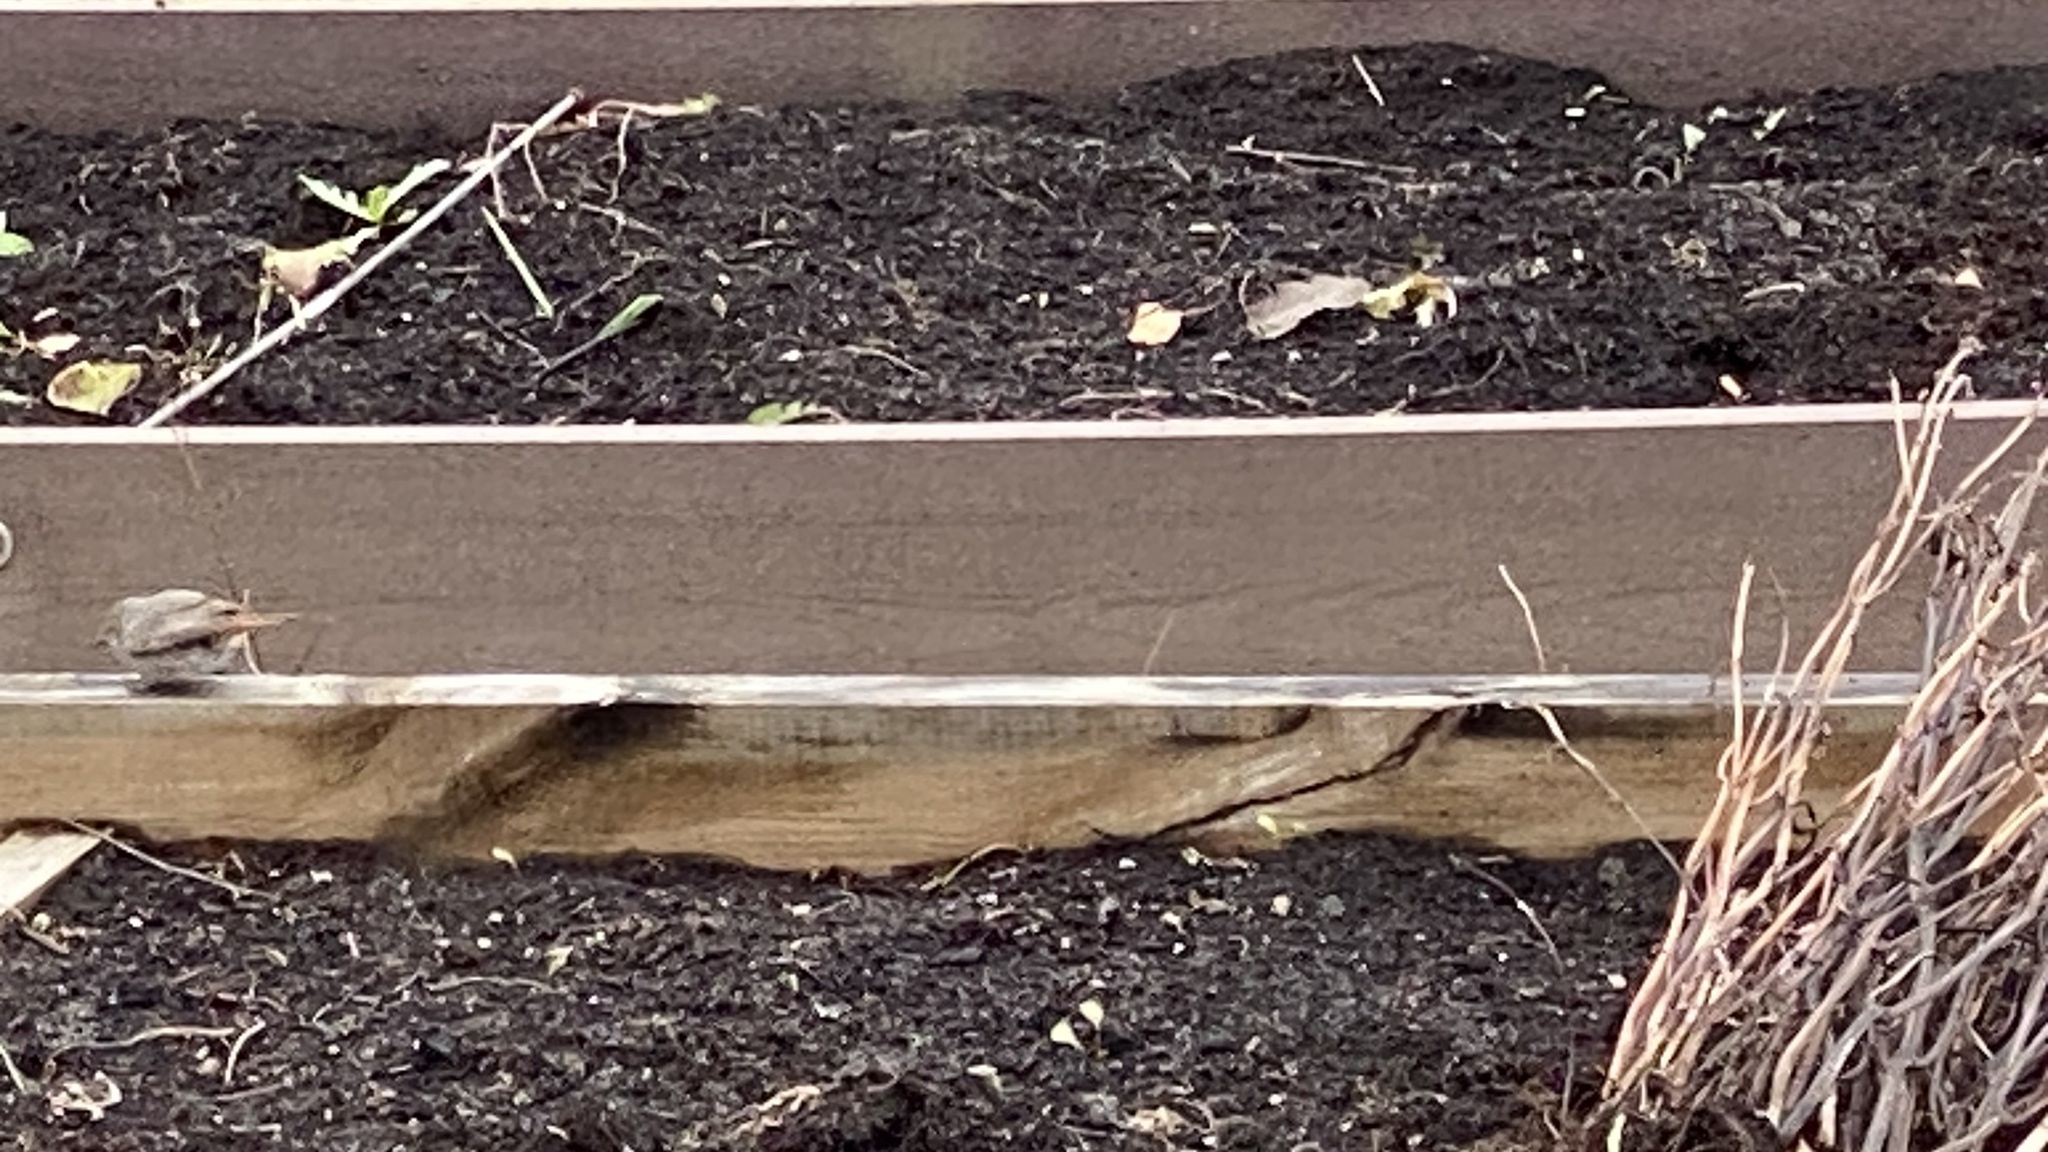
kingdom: Animalia
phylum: Chordata
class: Aves
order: Passeriformes
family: Muscicapidae
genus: Phoenicurus
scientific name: Phoenicurus ochruros
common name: Black redstart
